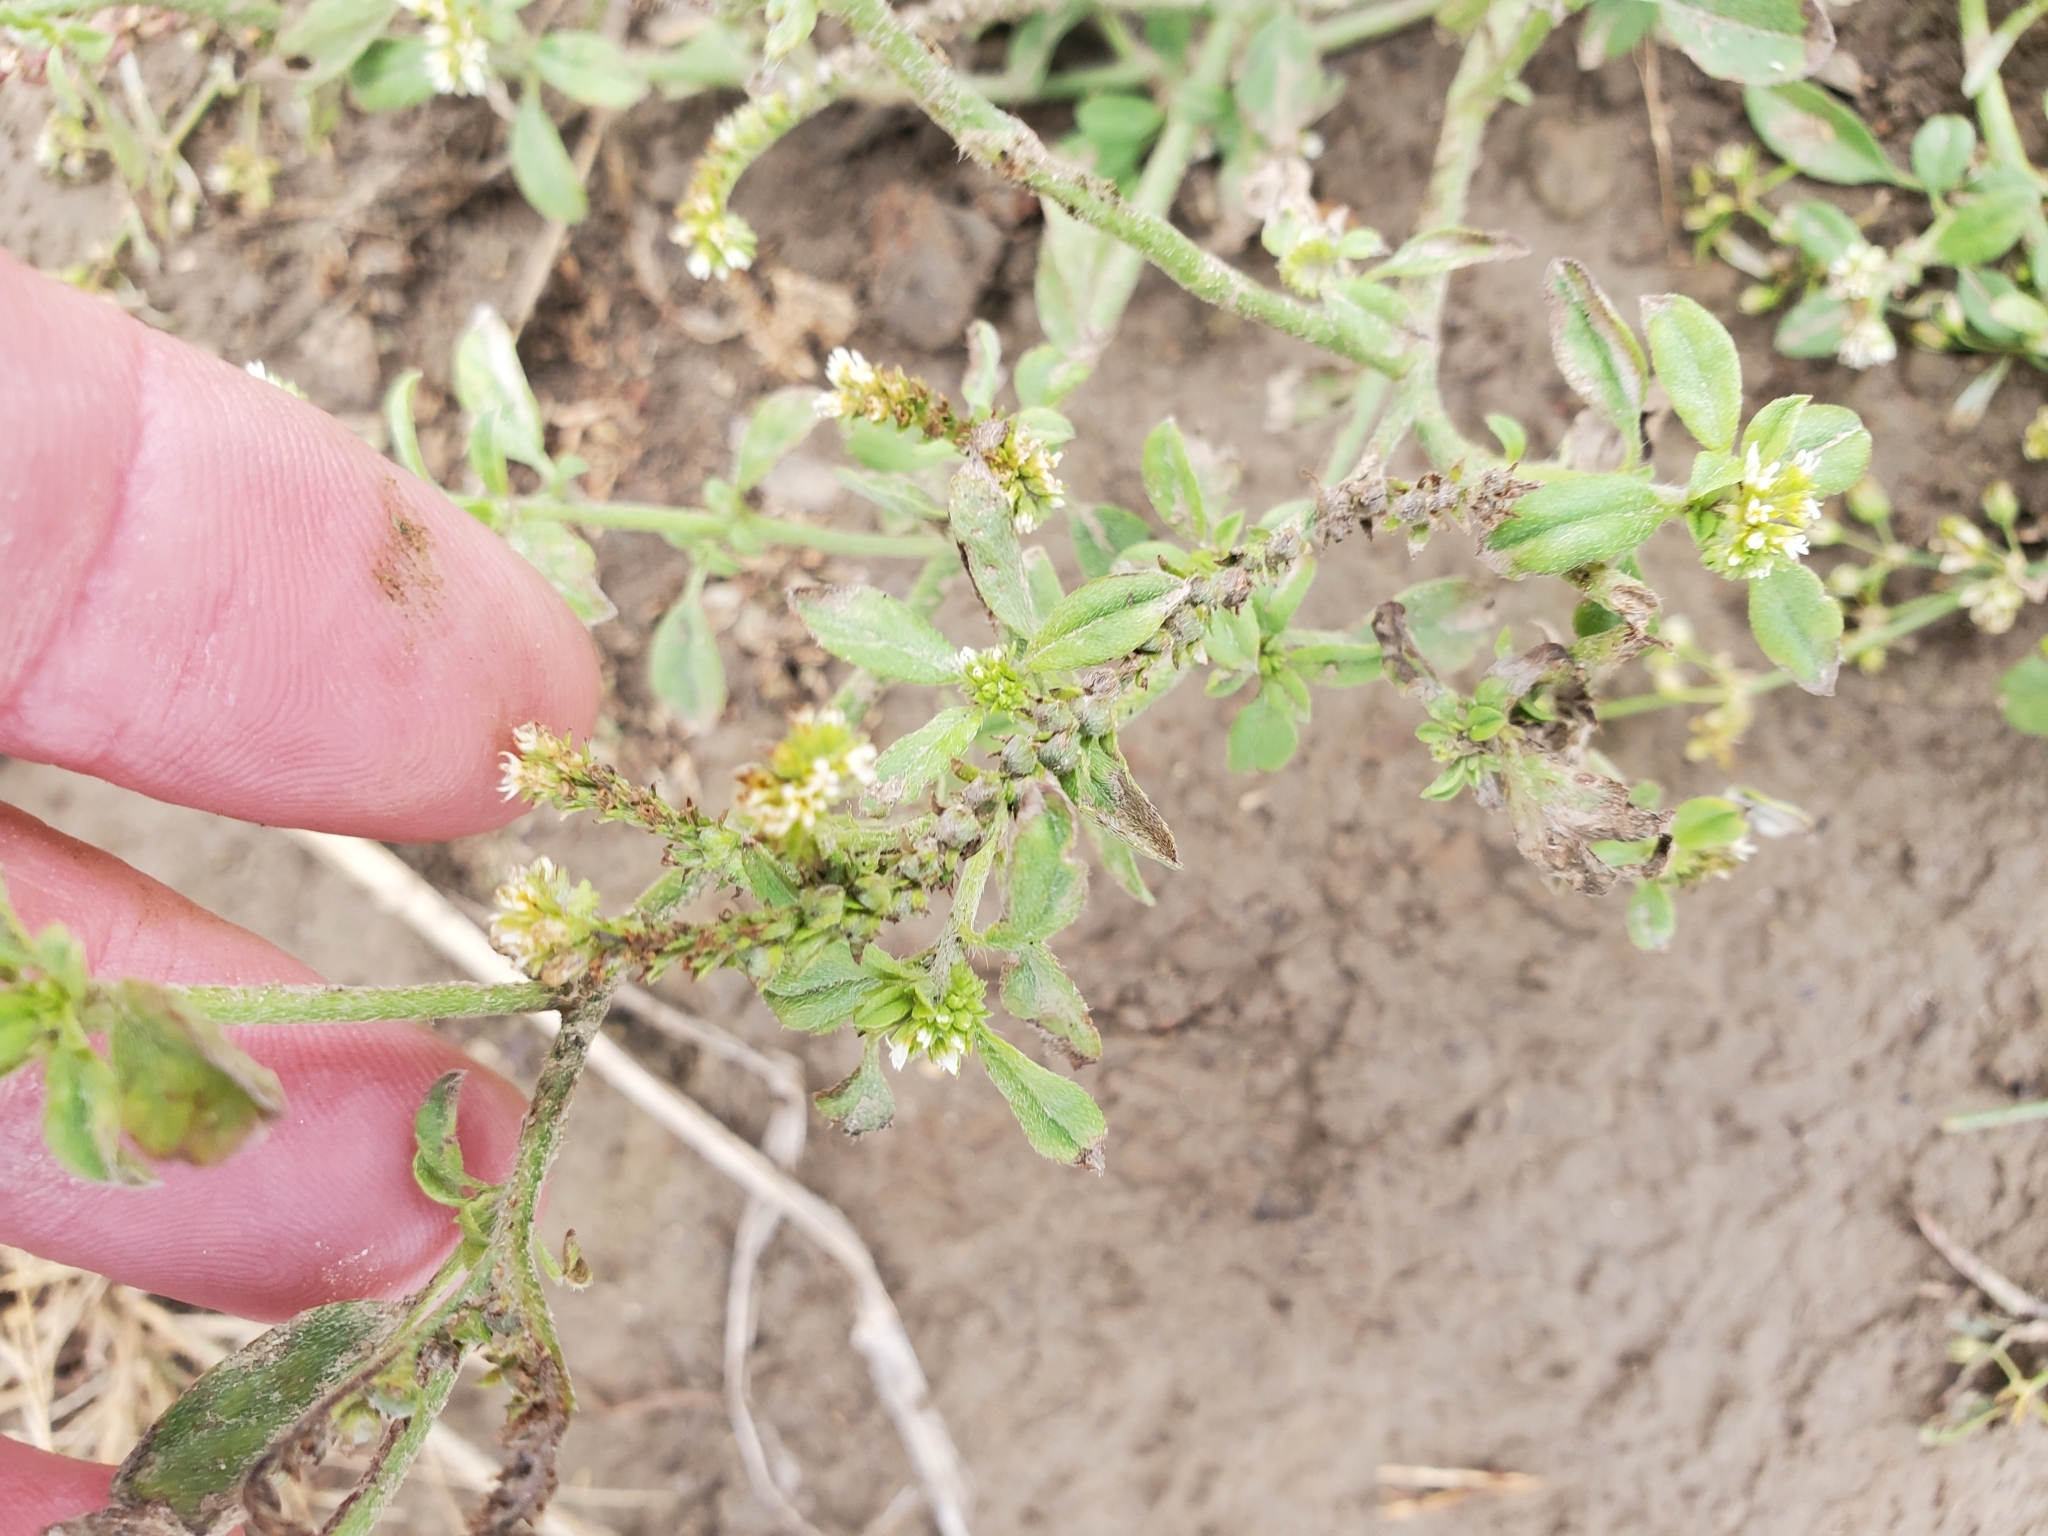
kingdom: Plantae
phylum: Tracheophyta
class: Magnoliopsida
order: Boraginales
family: Heliotropiaceae
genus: Euploca
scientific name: Euploca procumbens
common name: Fourspike heliotrope
